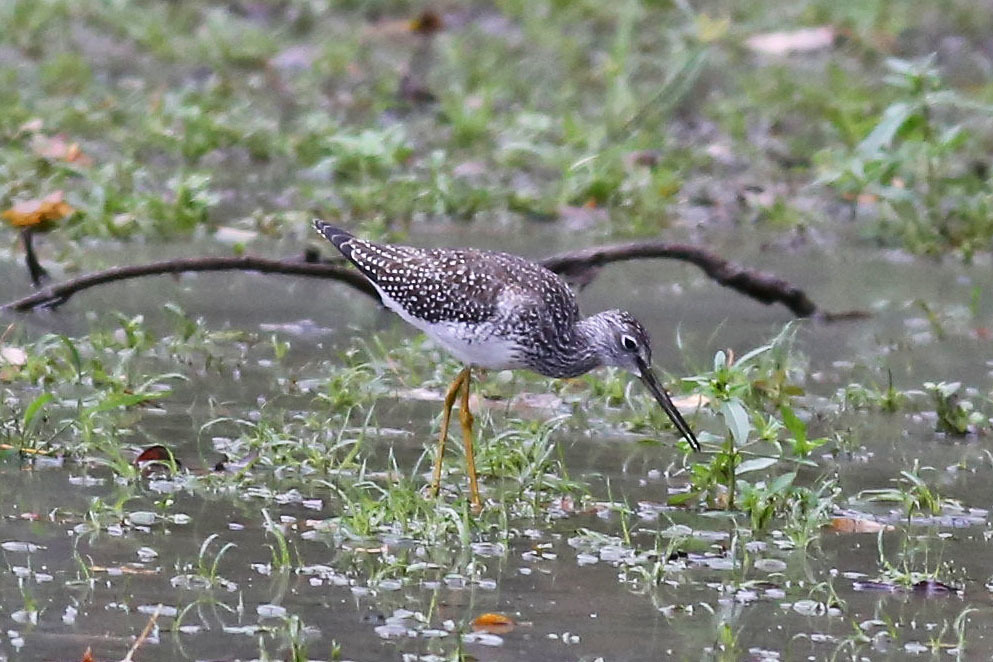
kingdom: Animalia
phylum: Chordata
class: Aves
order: Charadriiformes
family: Scolopacidae
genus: Tringa
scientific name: Tringa melanoleuca
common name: Greater yellowlegs
